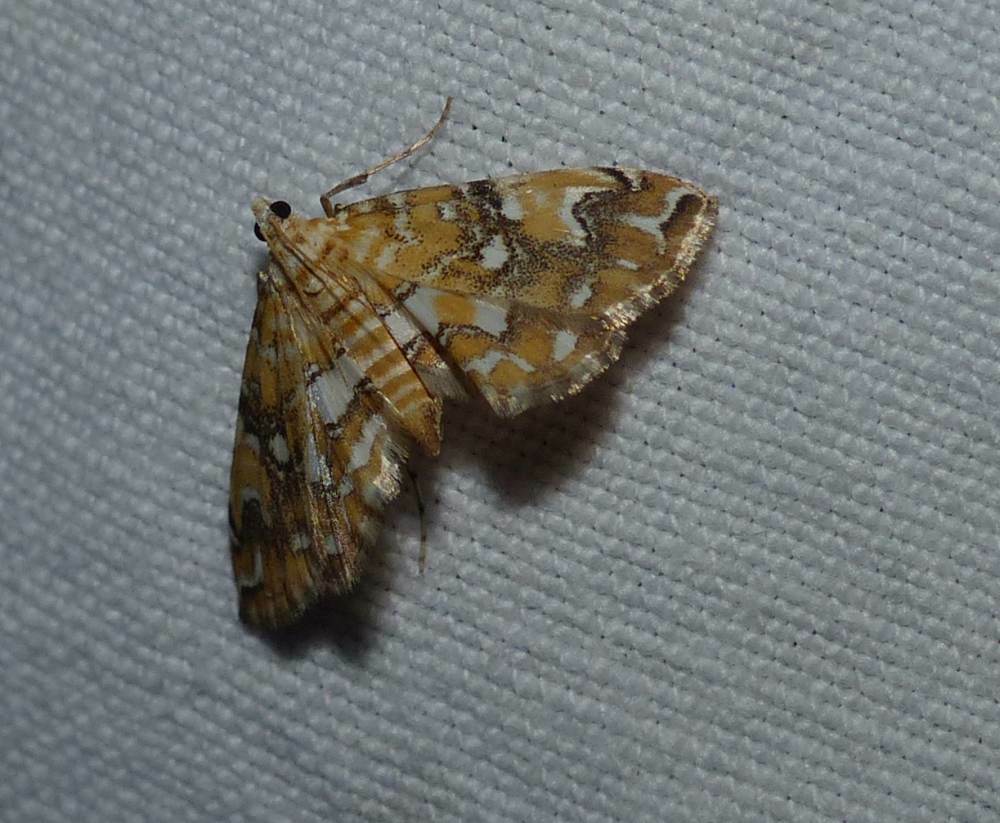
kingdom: Animalia
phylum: Arthropoda
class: Insecta
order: Lepidoptera
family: Crambidae
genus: Elophila
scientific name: Elophila faulalis
